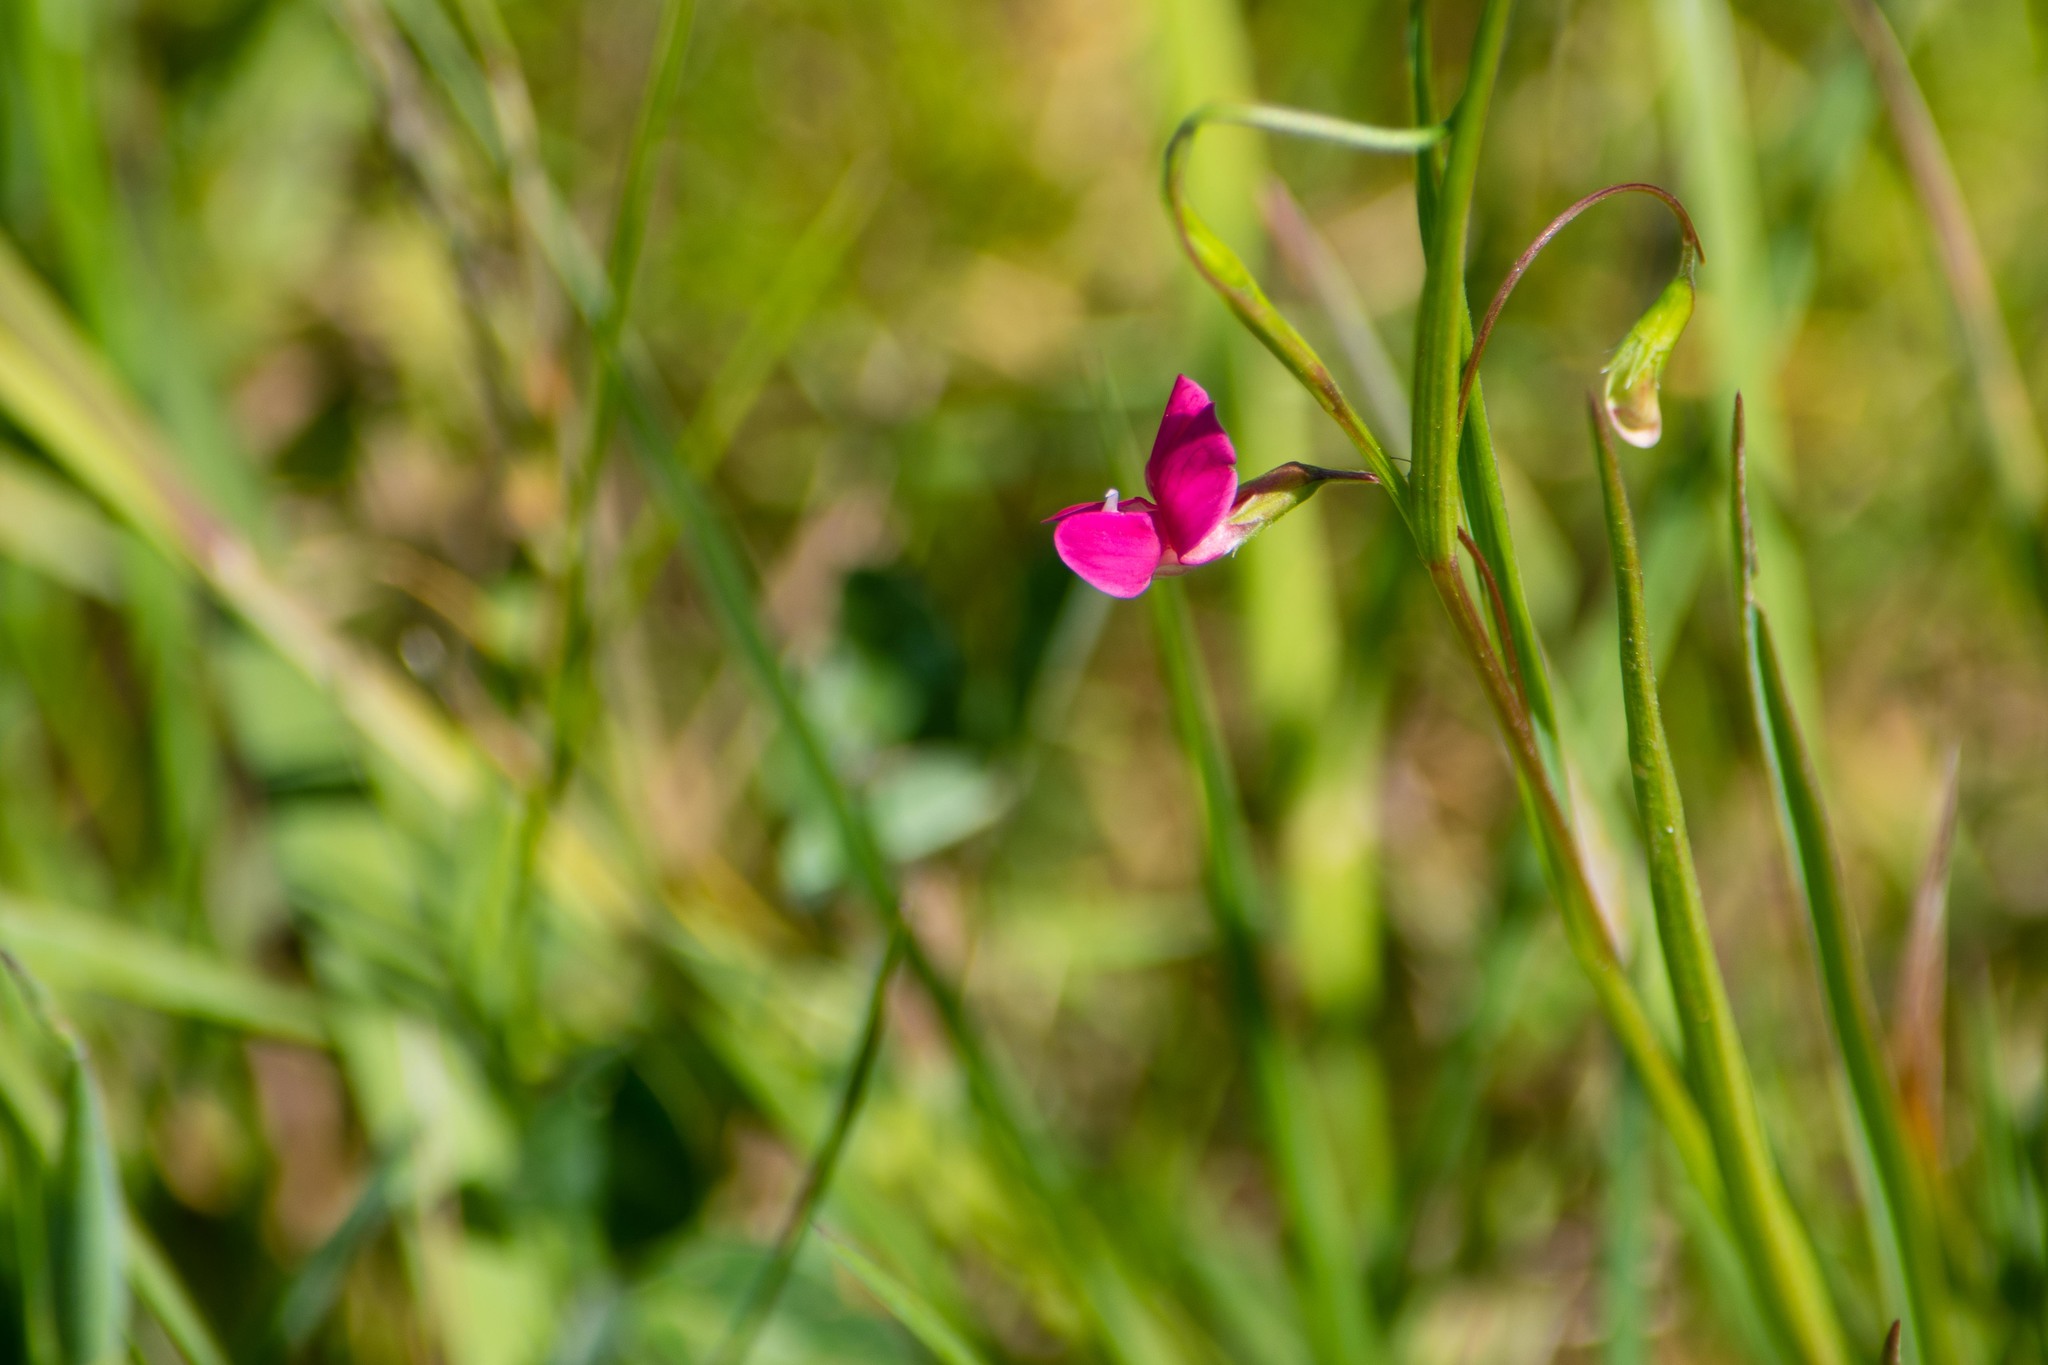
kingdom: Plantae
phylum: Tracheophyta
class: Magnoliopsida
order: Fabales
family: Fabaceae
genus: Lathyrus
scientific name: Lathyrus nissolia
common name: Grass vetchling
